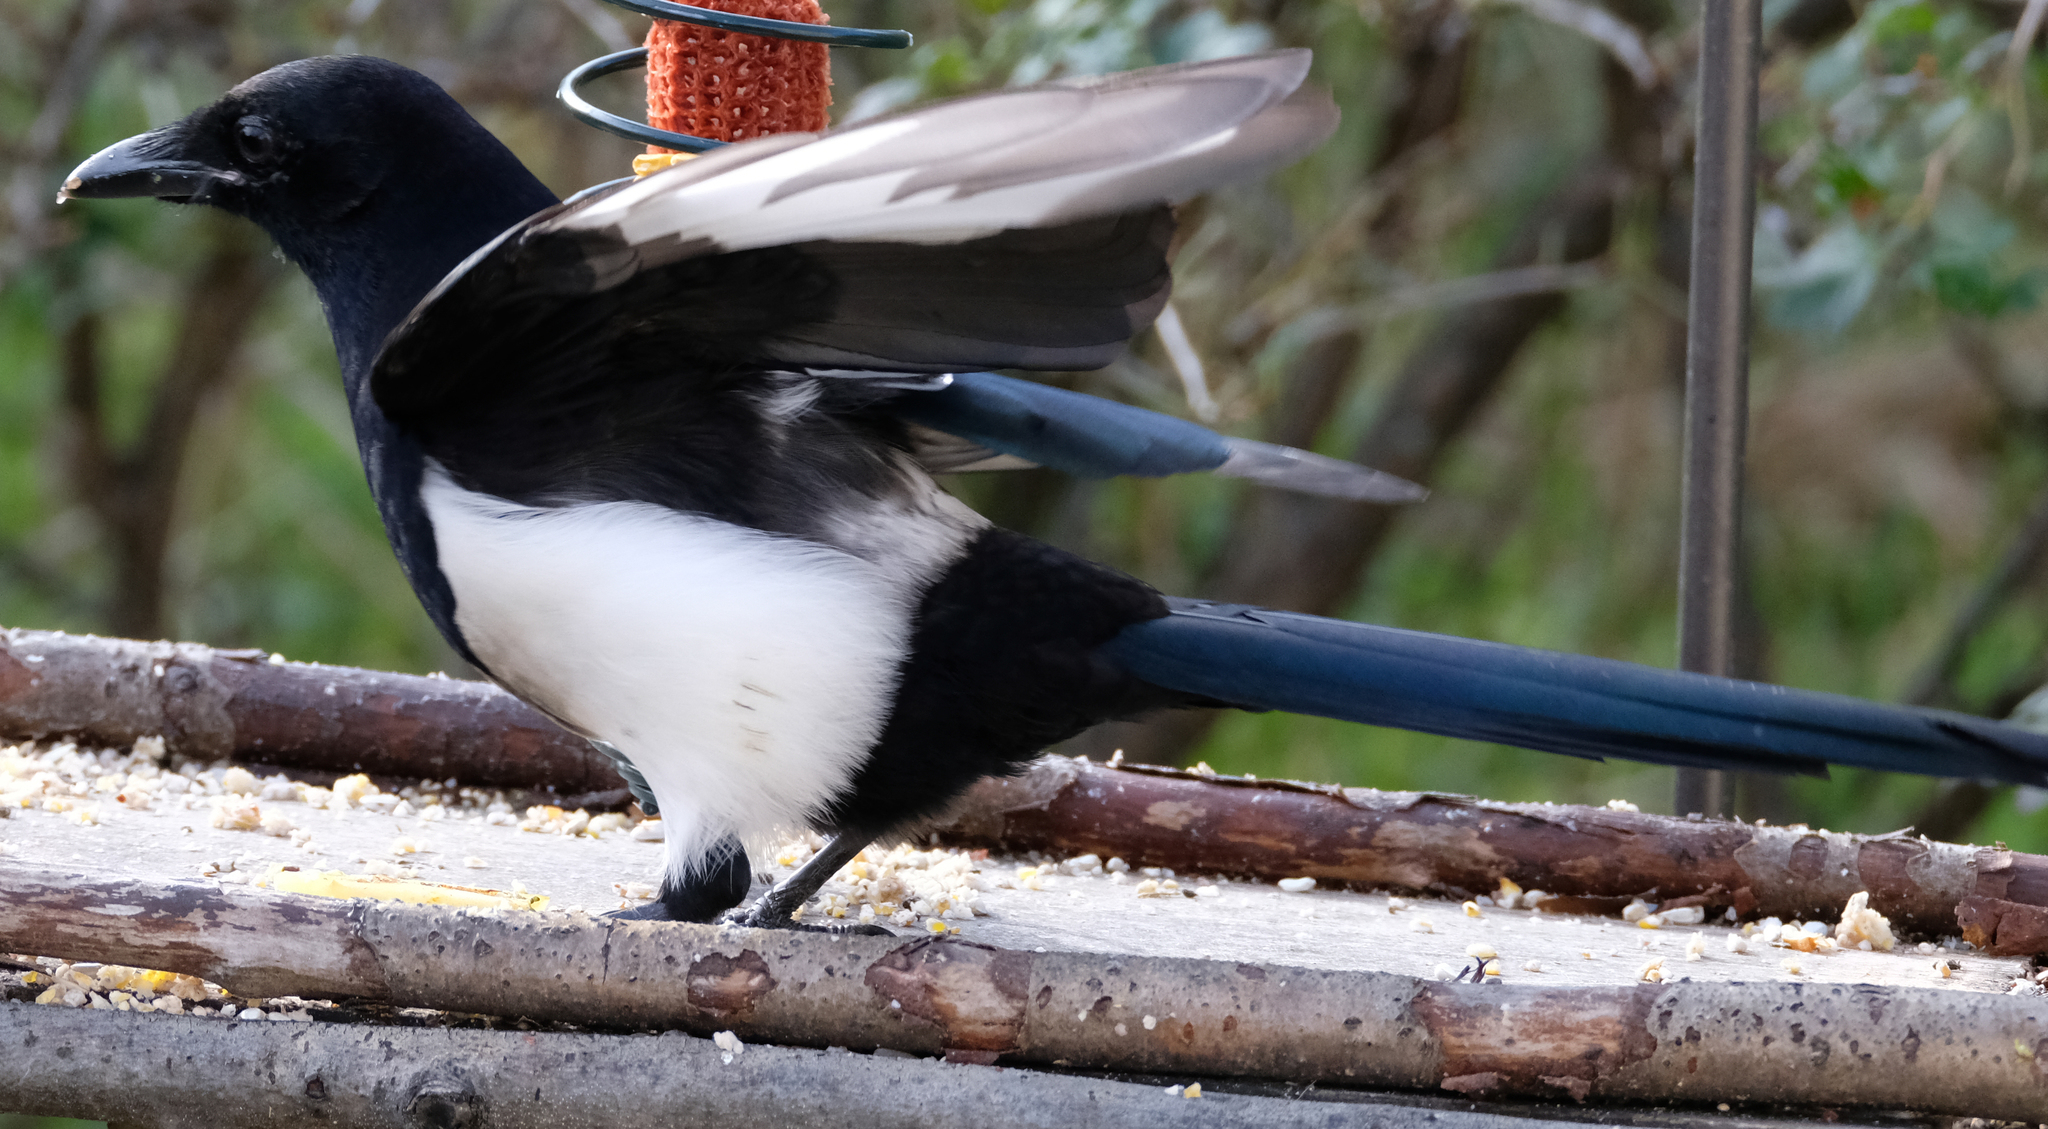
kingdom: Animalia
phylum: Chordata
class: Aves
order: Passeriformes
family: Corvidae
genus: Pica
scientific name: Pica hudsonia
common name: Black-billed magpie
